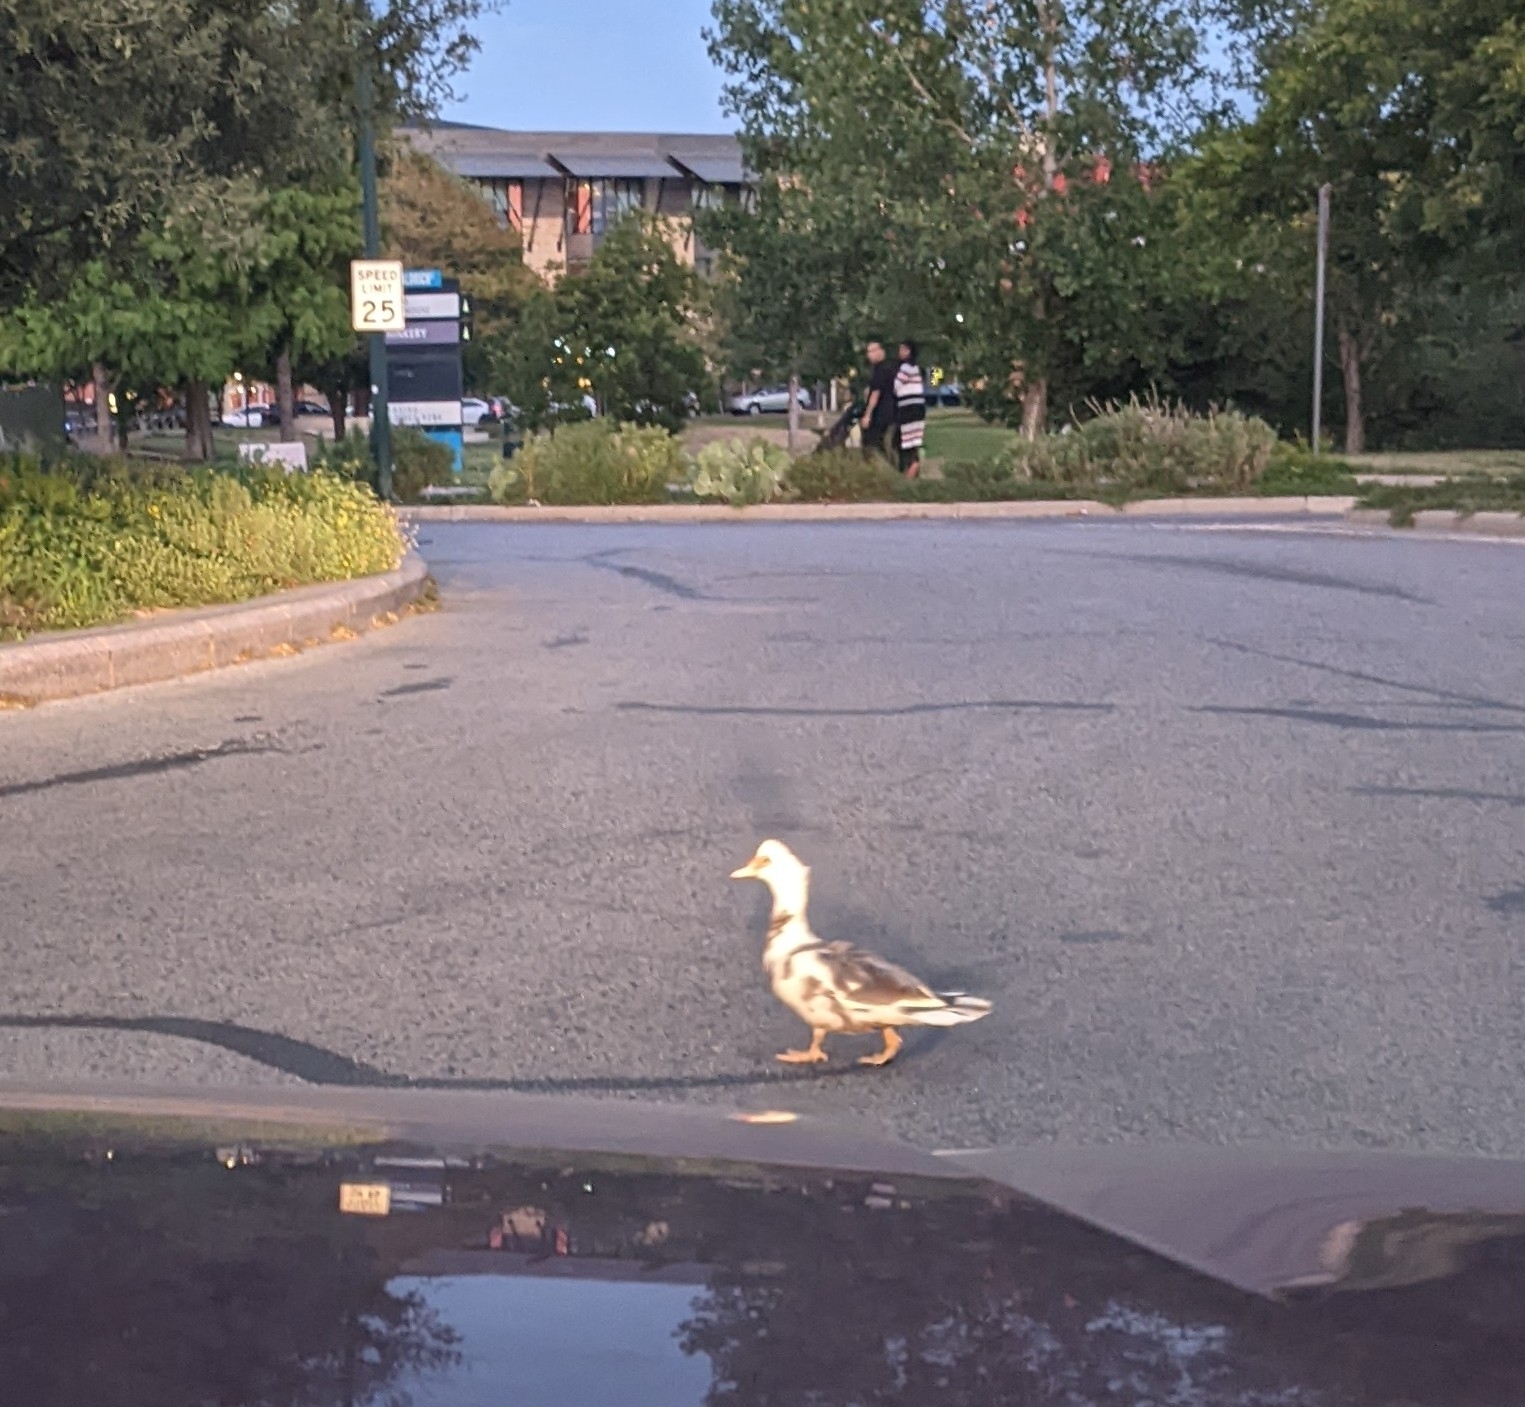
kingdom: Animalia
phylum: Chordata
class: Aves
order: Anseriformes
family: Anatidae
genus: Cairina
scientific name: Cairina moschata
